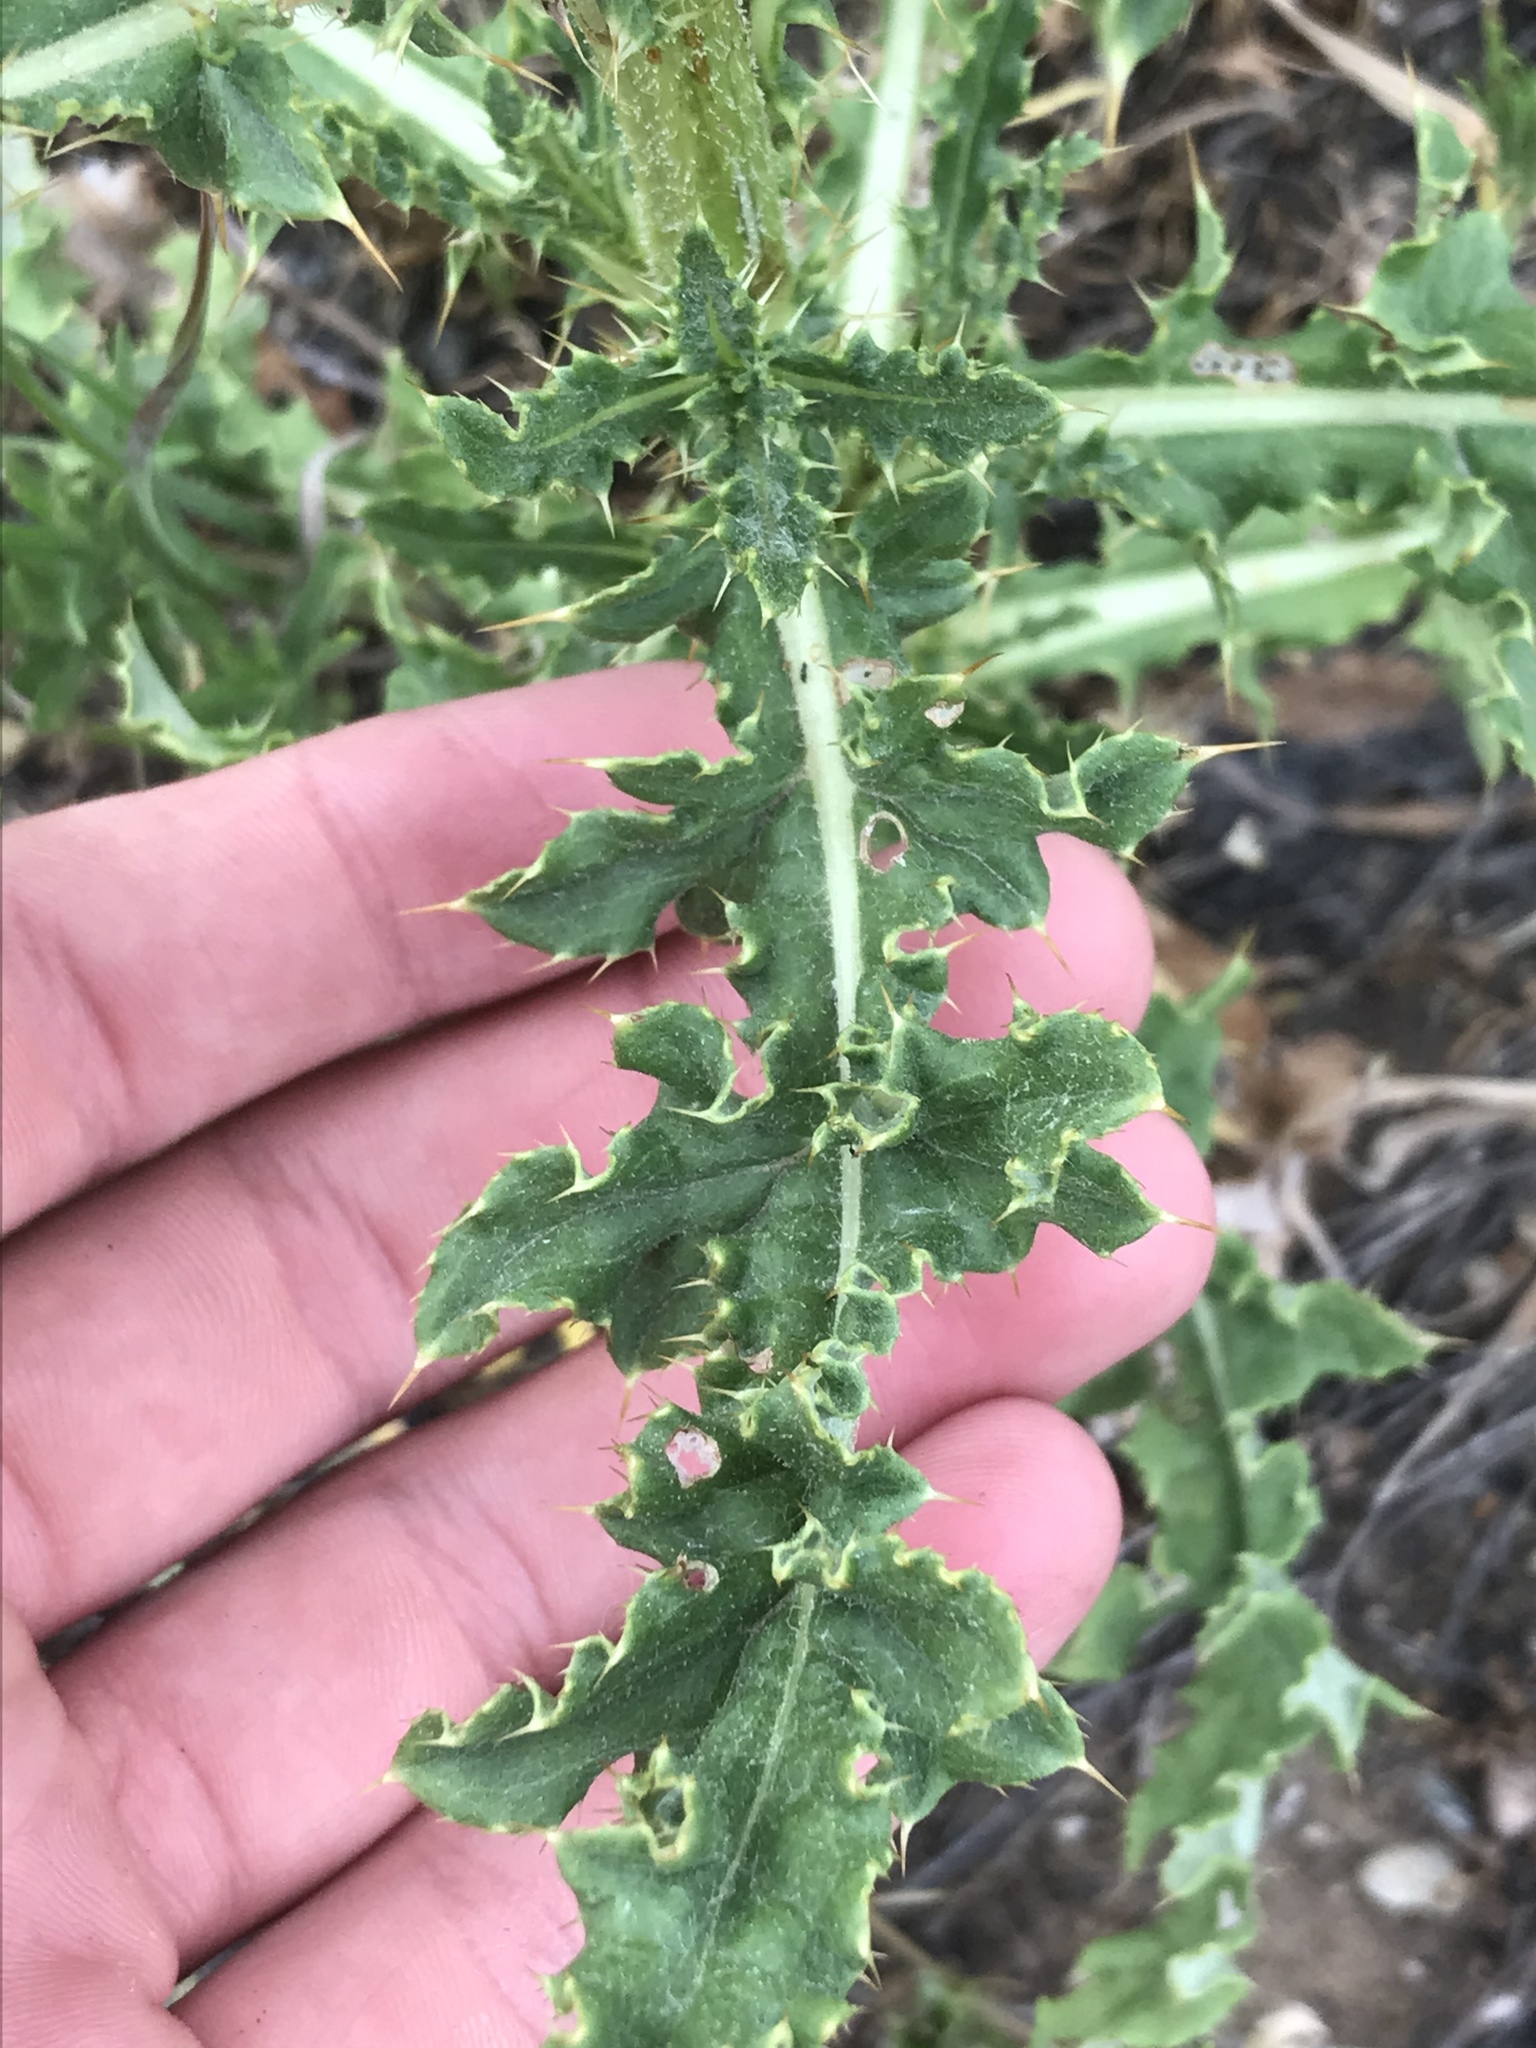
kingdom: Plantae
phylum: Tracheophyta
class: Magnoliopsida
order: Asterales
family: Asteraceae
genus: Cirsium
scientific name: Cirsium arvense
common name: Creeping thistle
